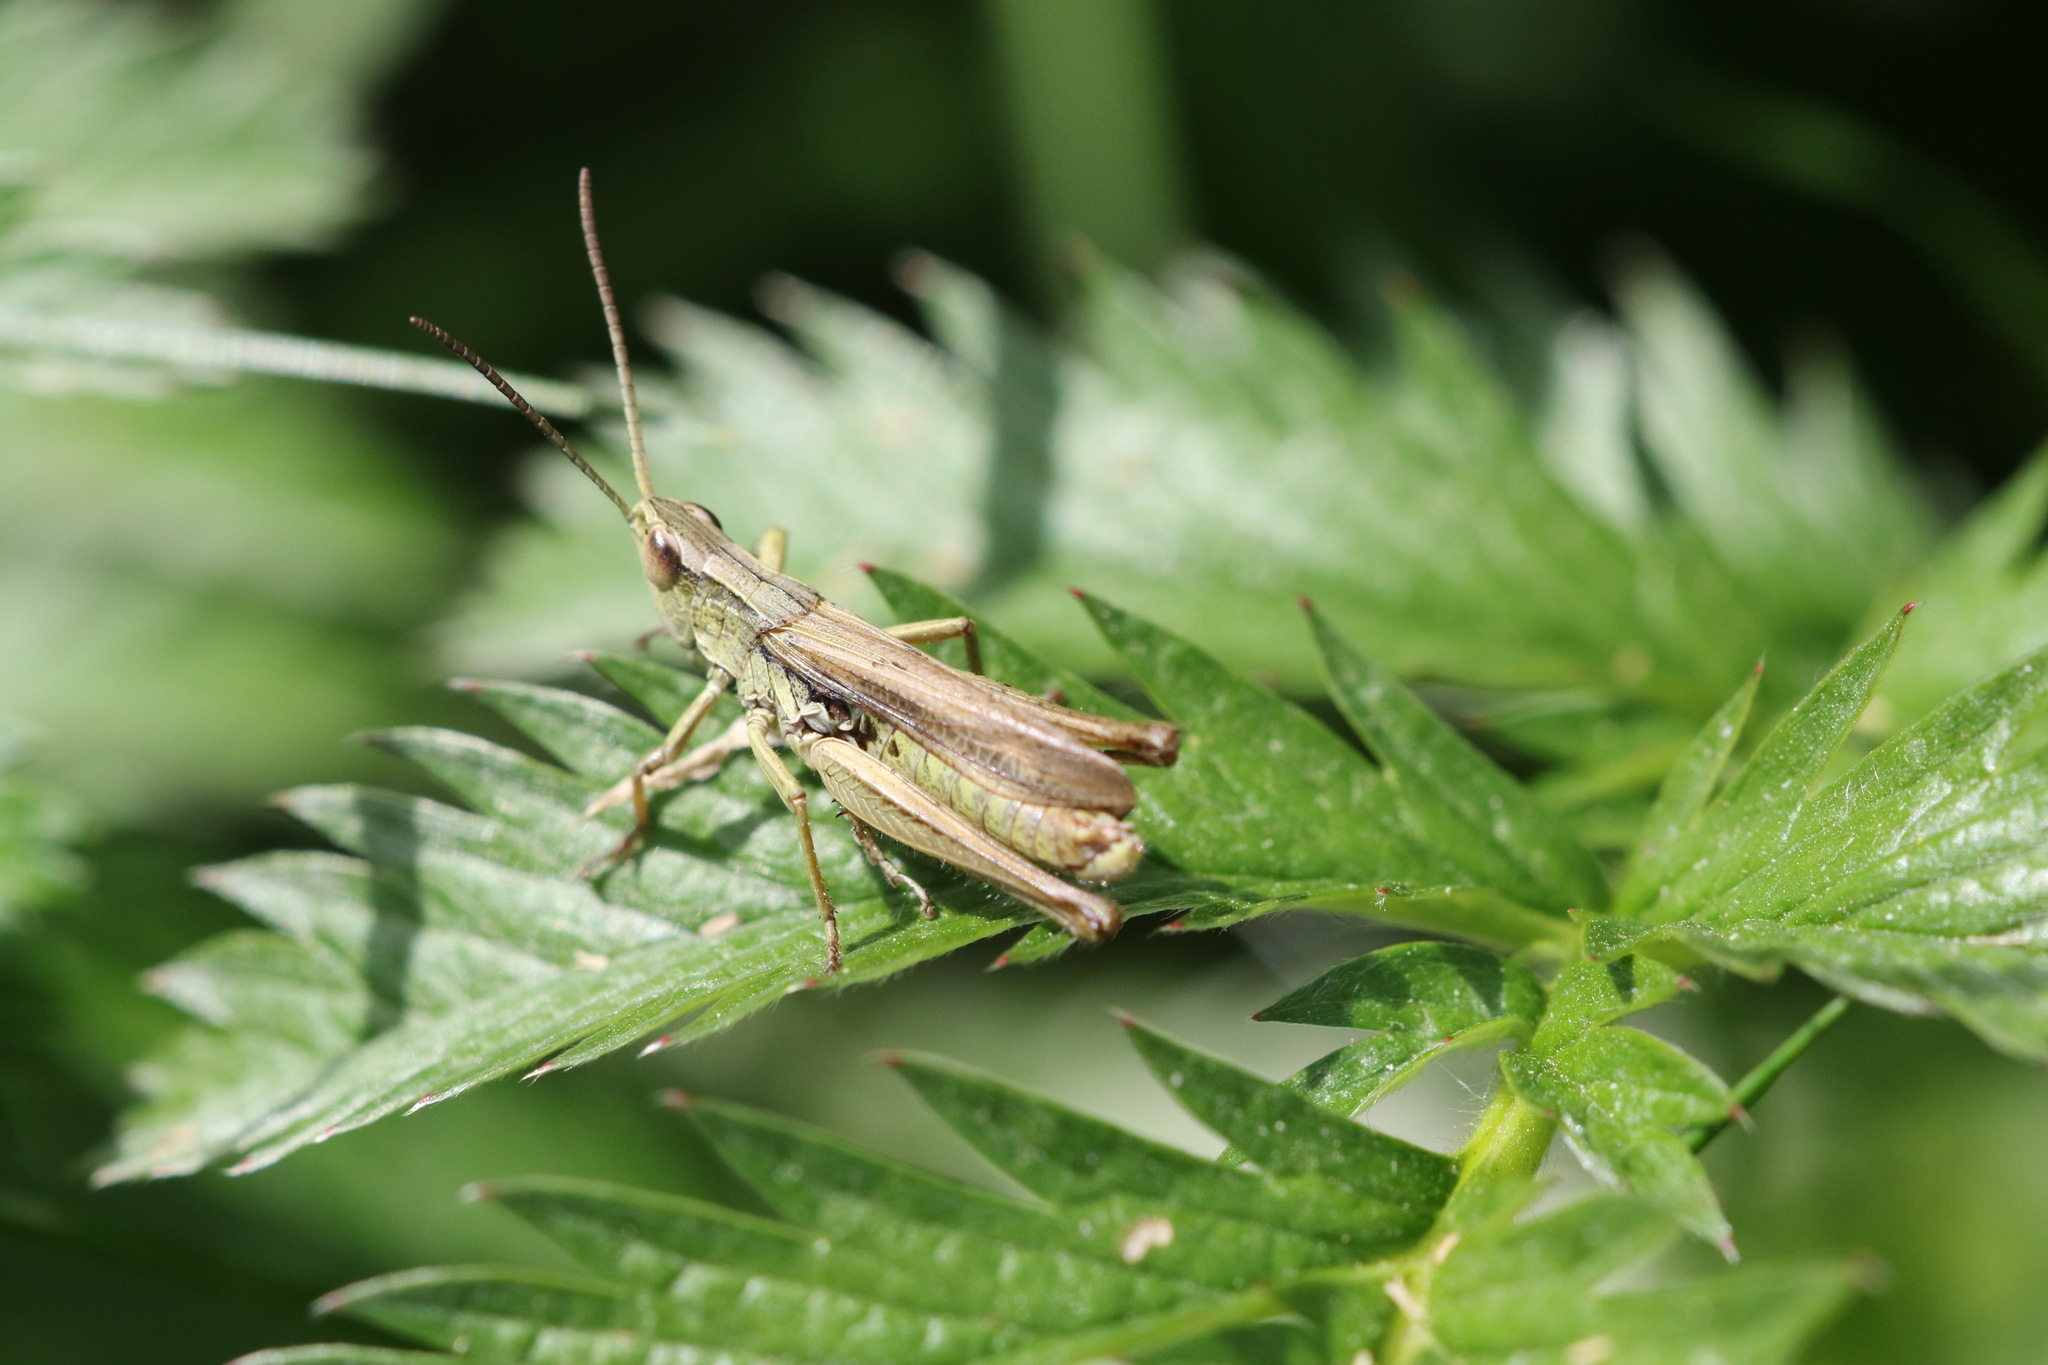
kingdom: Animalia
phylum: Arthropoda
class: Insecta
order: Orthoptera
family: Acrididae
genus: Chorthippus
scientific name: Chorthippus albomarginatus
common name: Lesser marsh grasshopper
